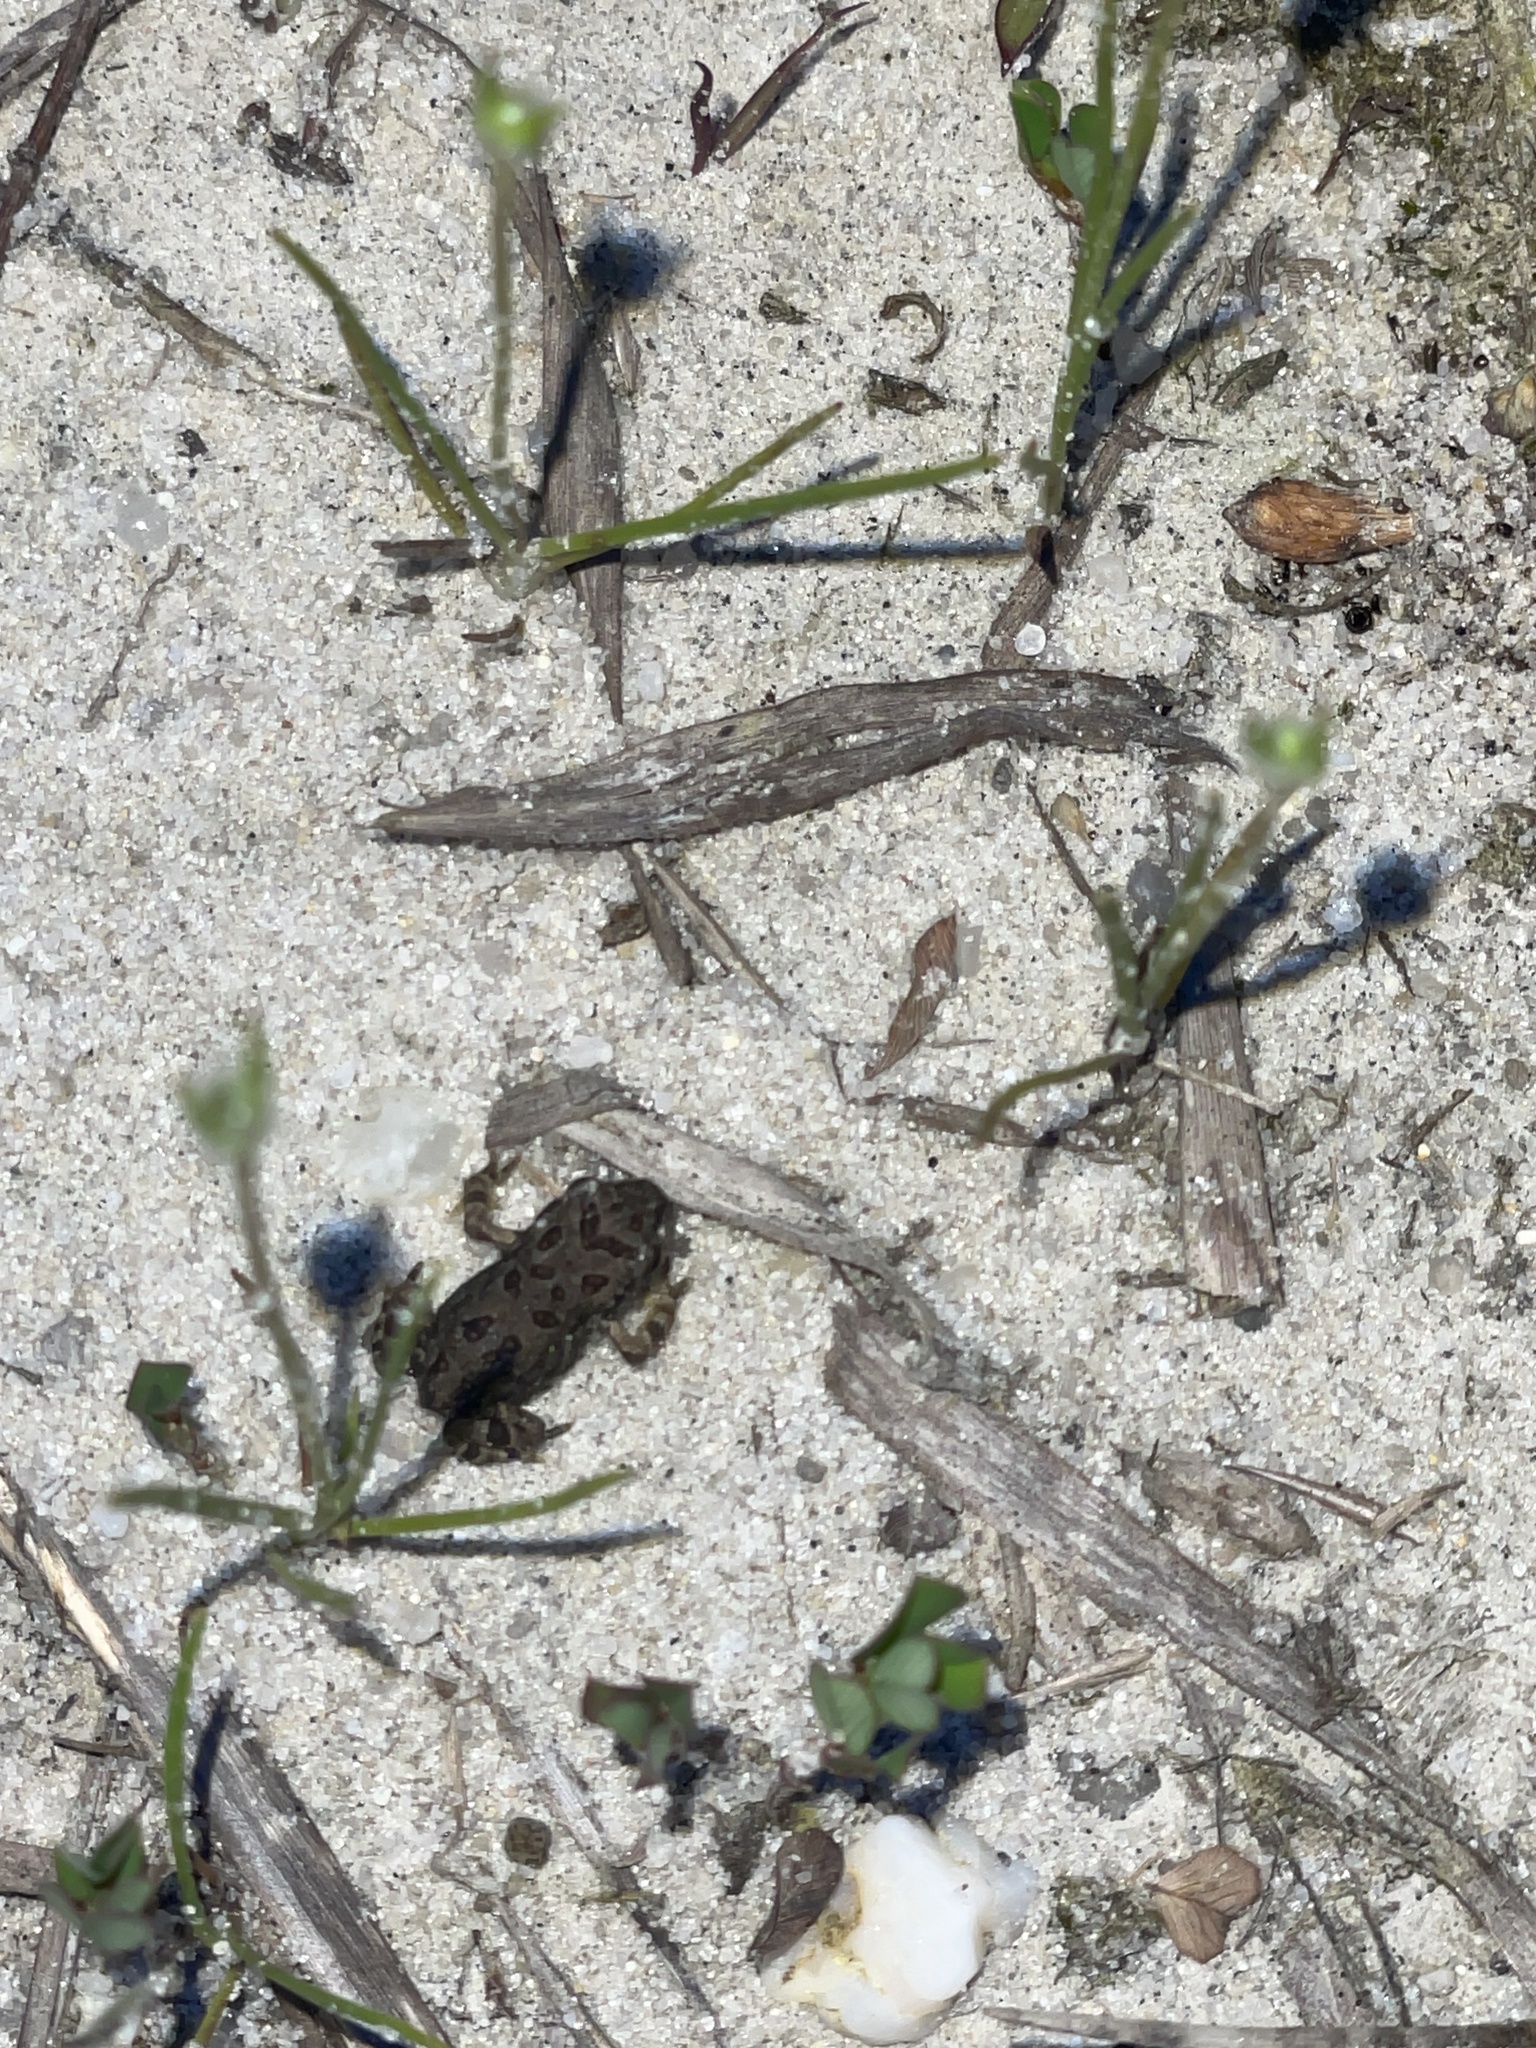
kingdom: Animalia
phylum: Chordata
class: Amphibia
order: Anura
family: Bufonidae
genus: Anaxyrus
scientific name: Anaxyrus fowleri
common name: Fowler's toad
